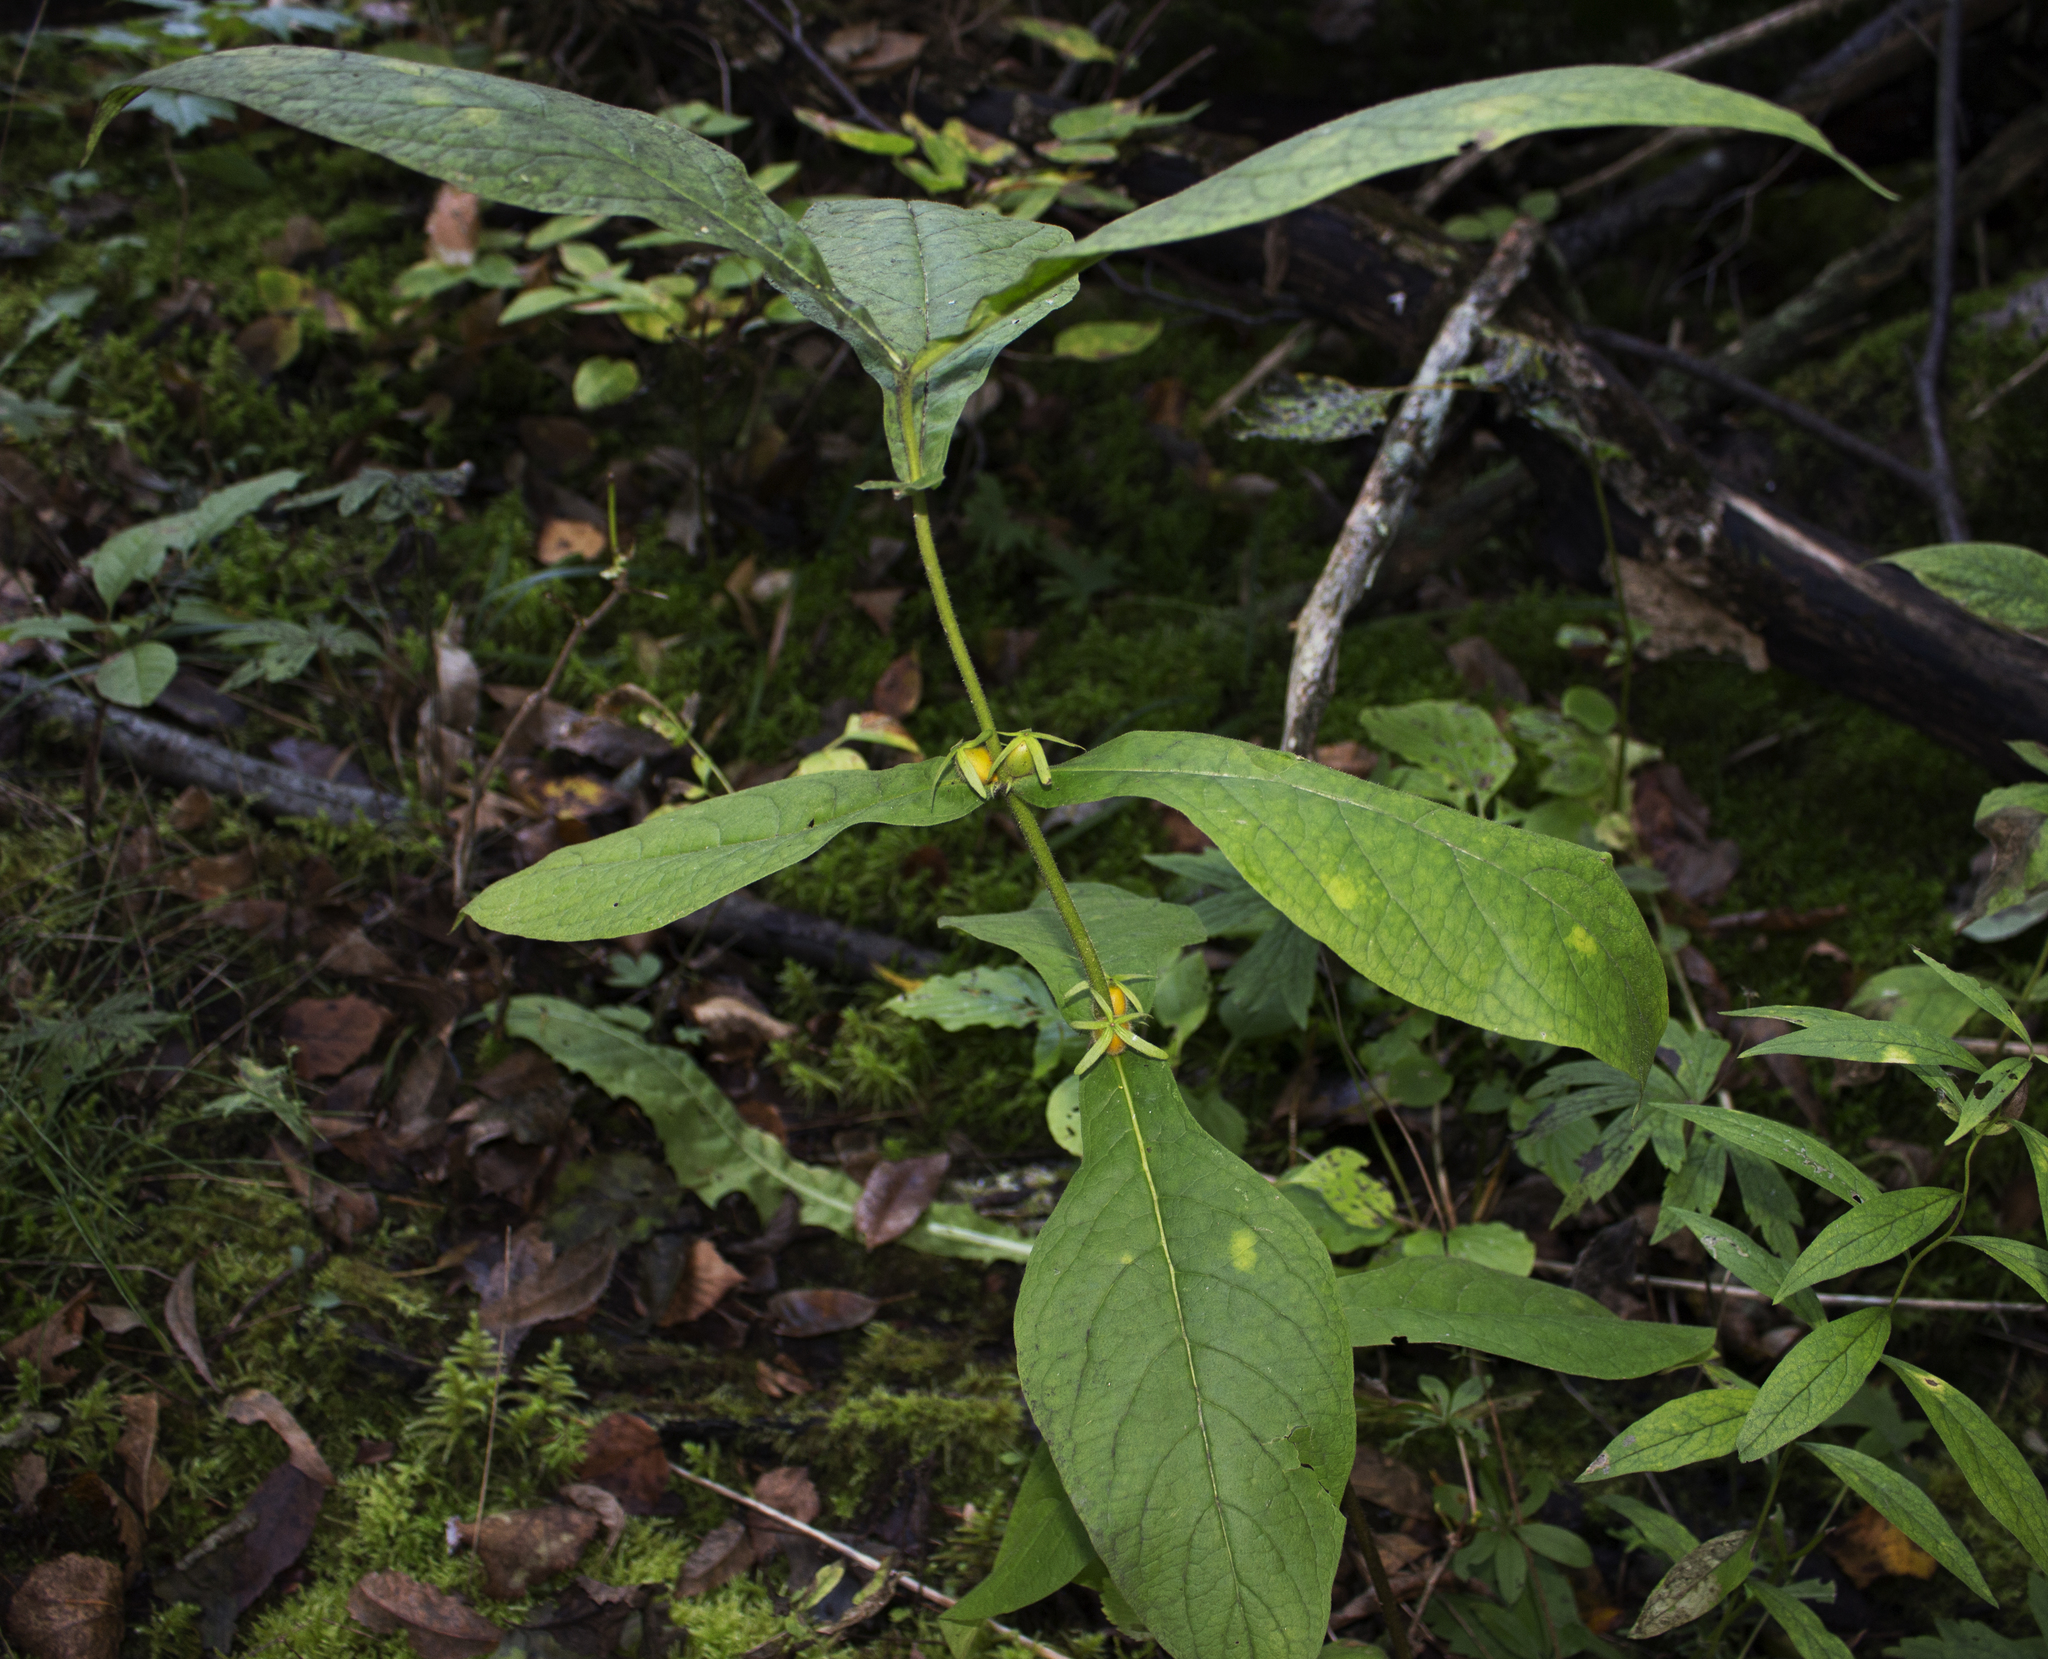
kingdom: Plantae
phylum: Tracheophyta
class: Magnoliopsida
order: Dipsacales
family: Caprifoliaceae
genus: Triosteum
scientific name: Triosteum aurantiacum
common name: Coffee tinker's-weed
